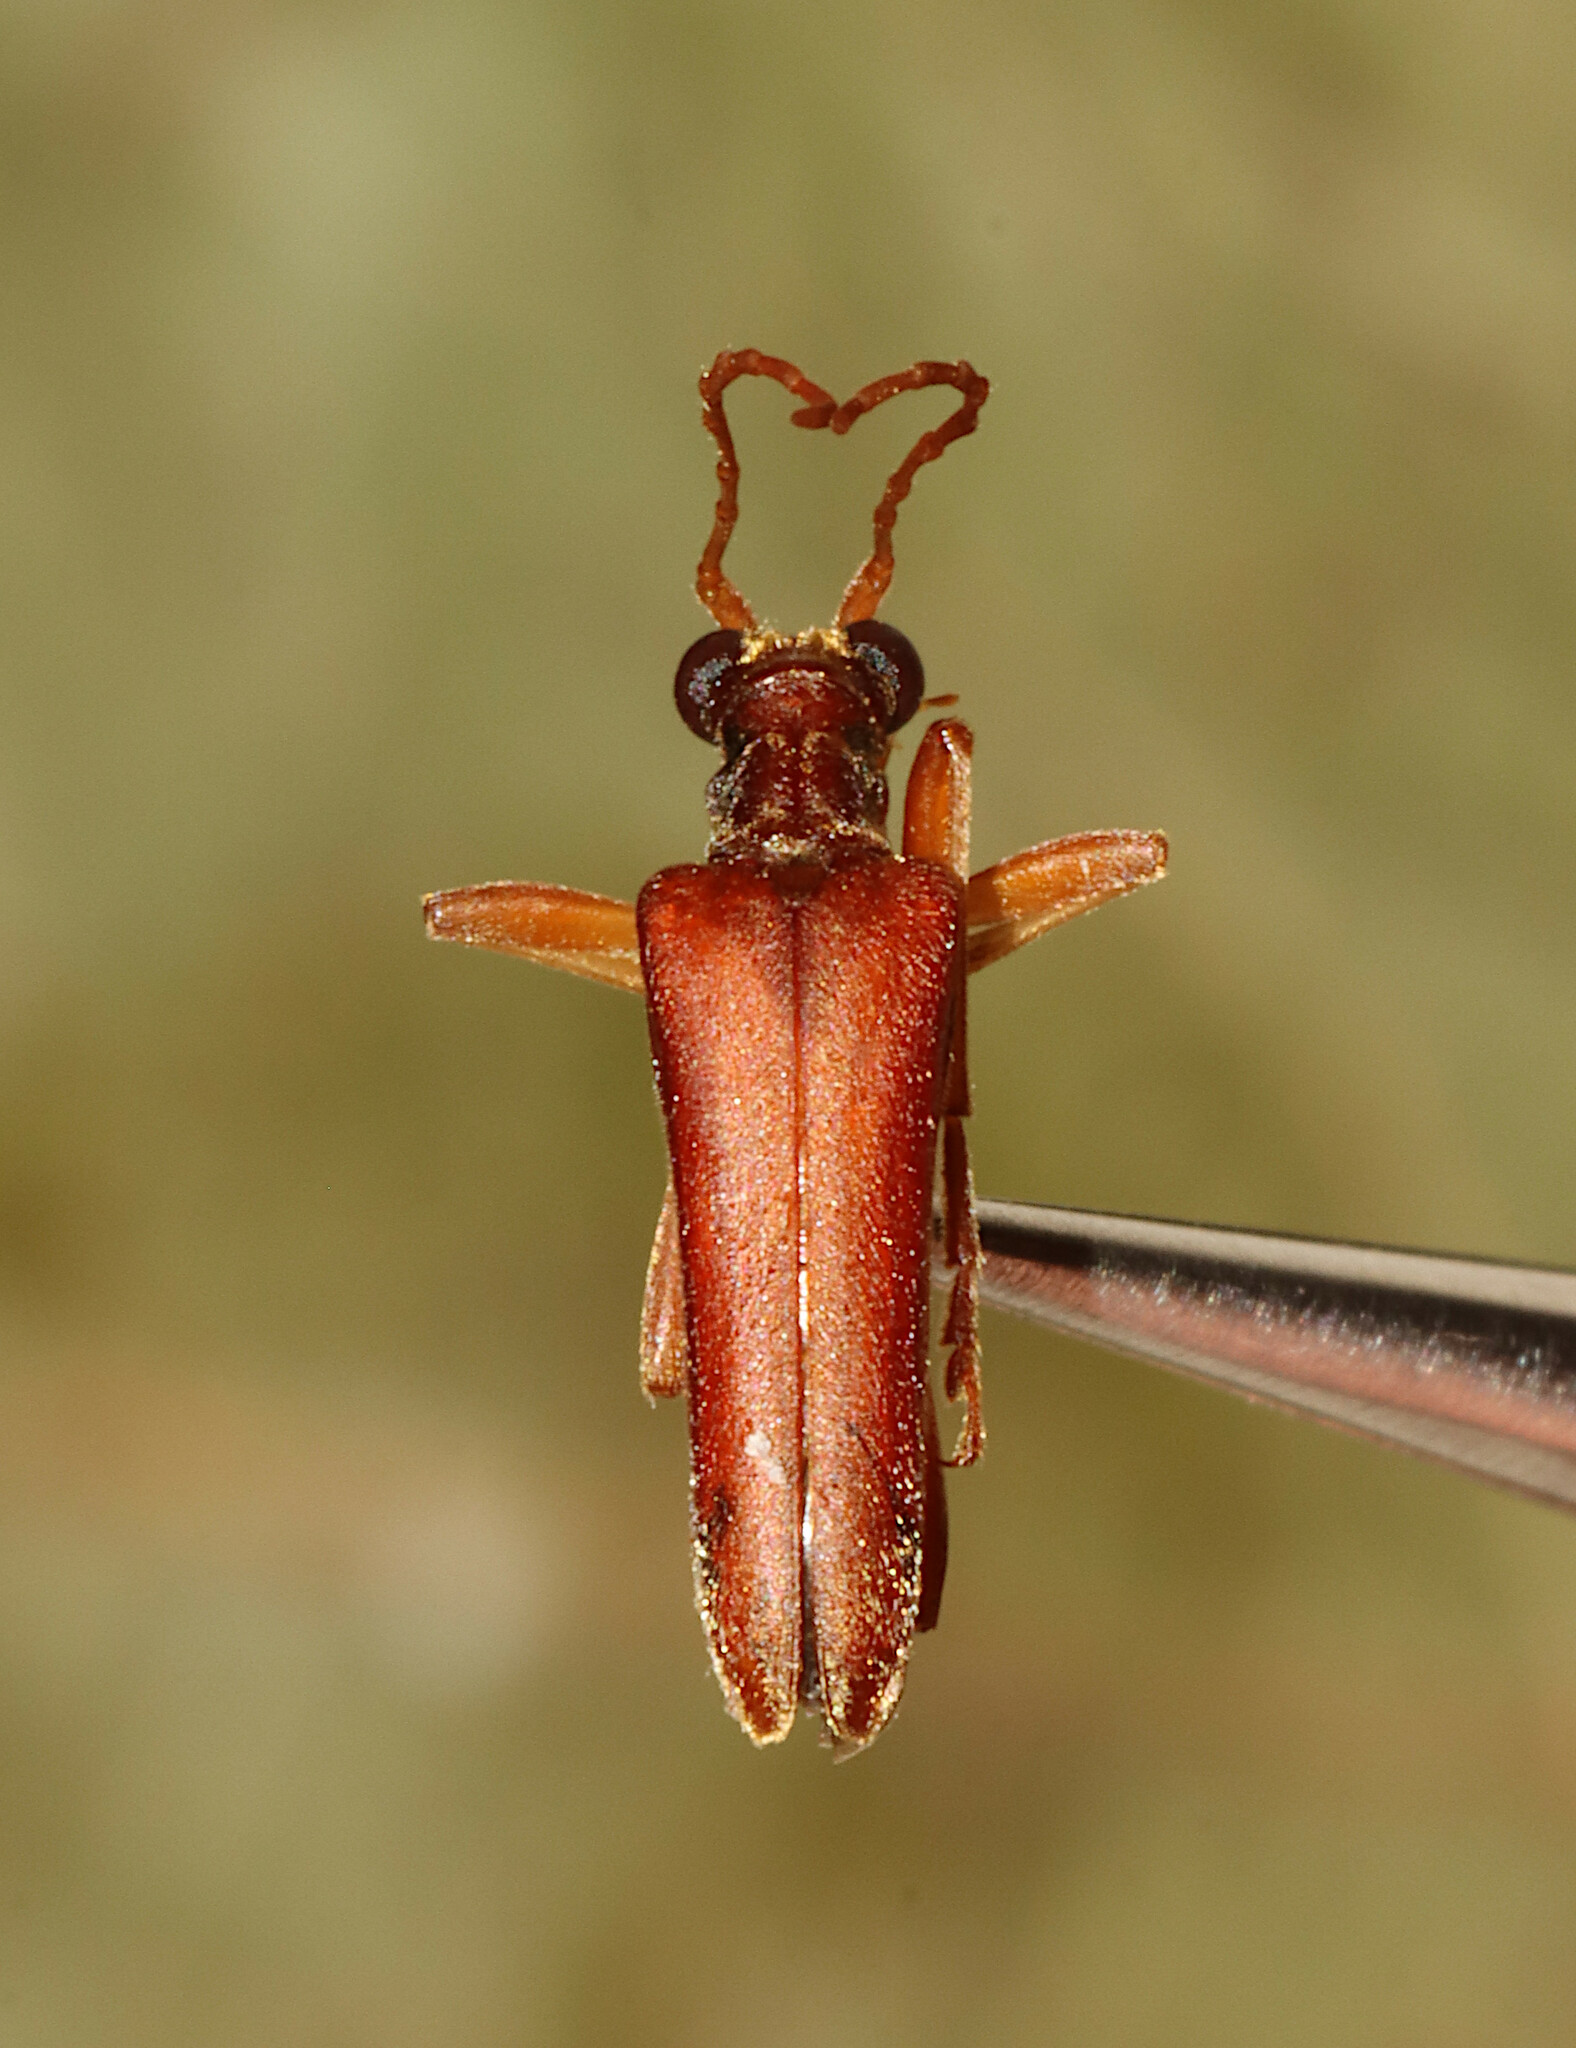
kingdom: Animalia
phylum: Arthropoda
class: Insecta
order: Coleoptera
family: Cerambycidae
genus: Stenocorus
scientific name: Stenocorus cinnamopterus
